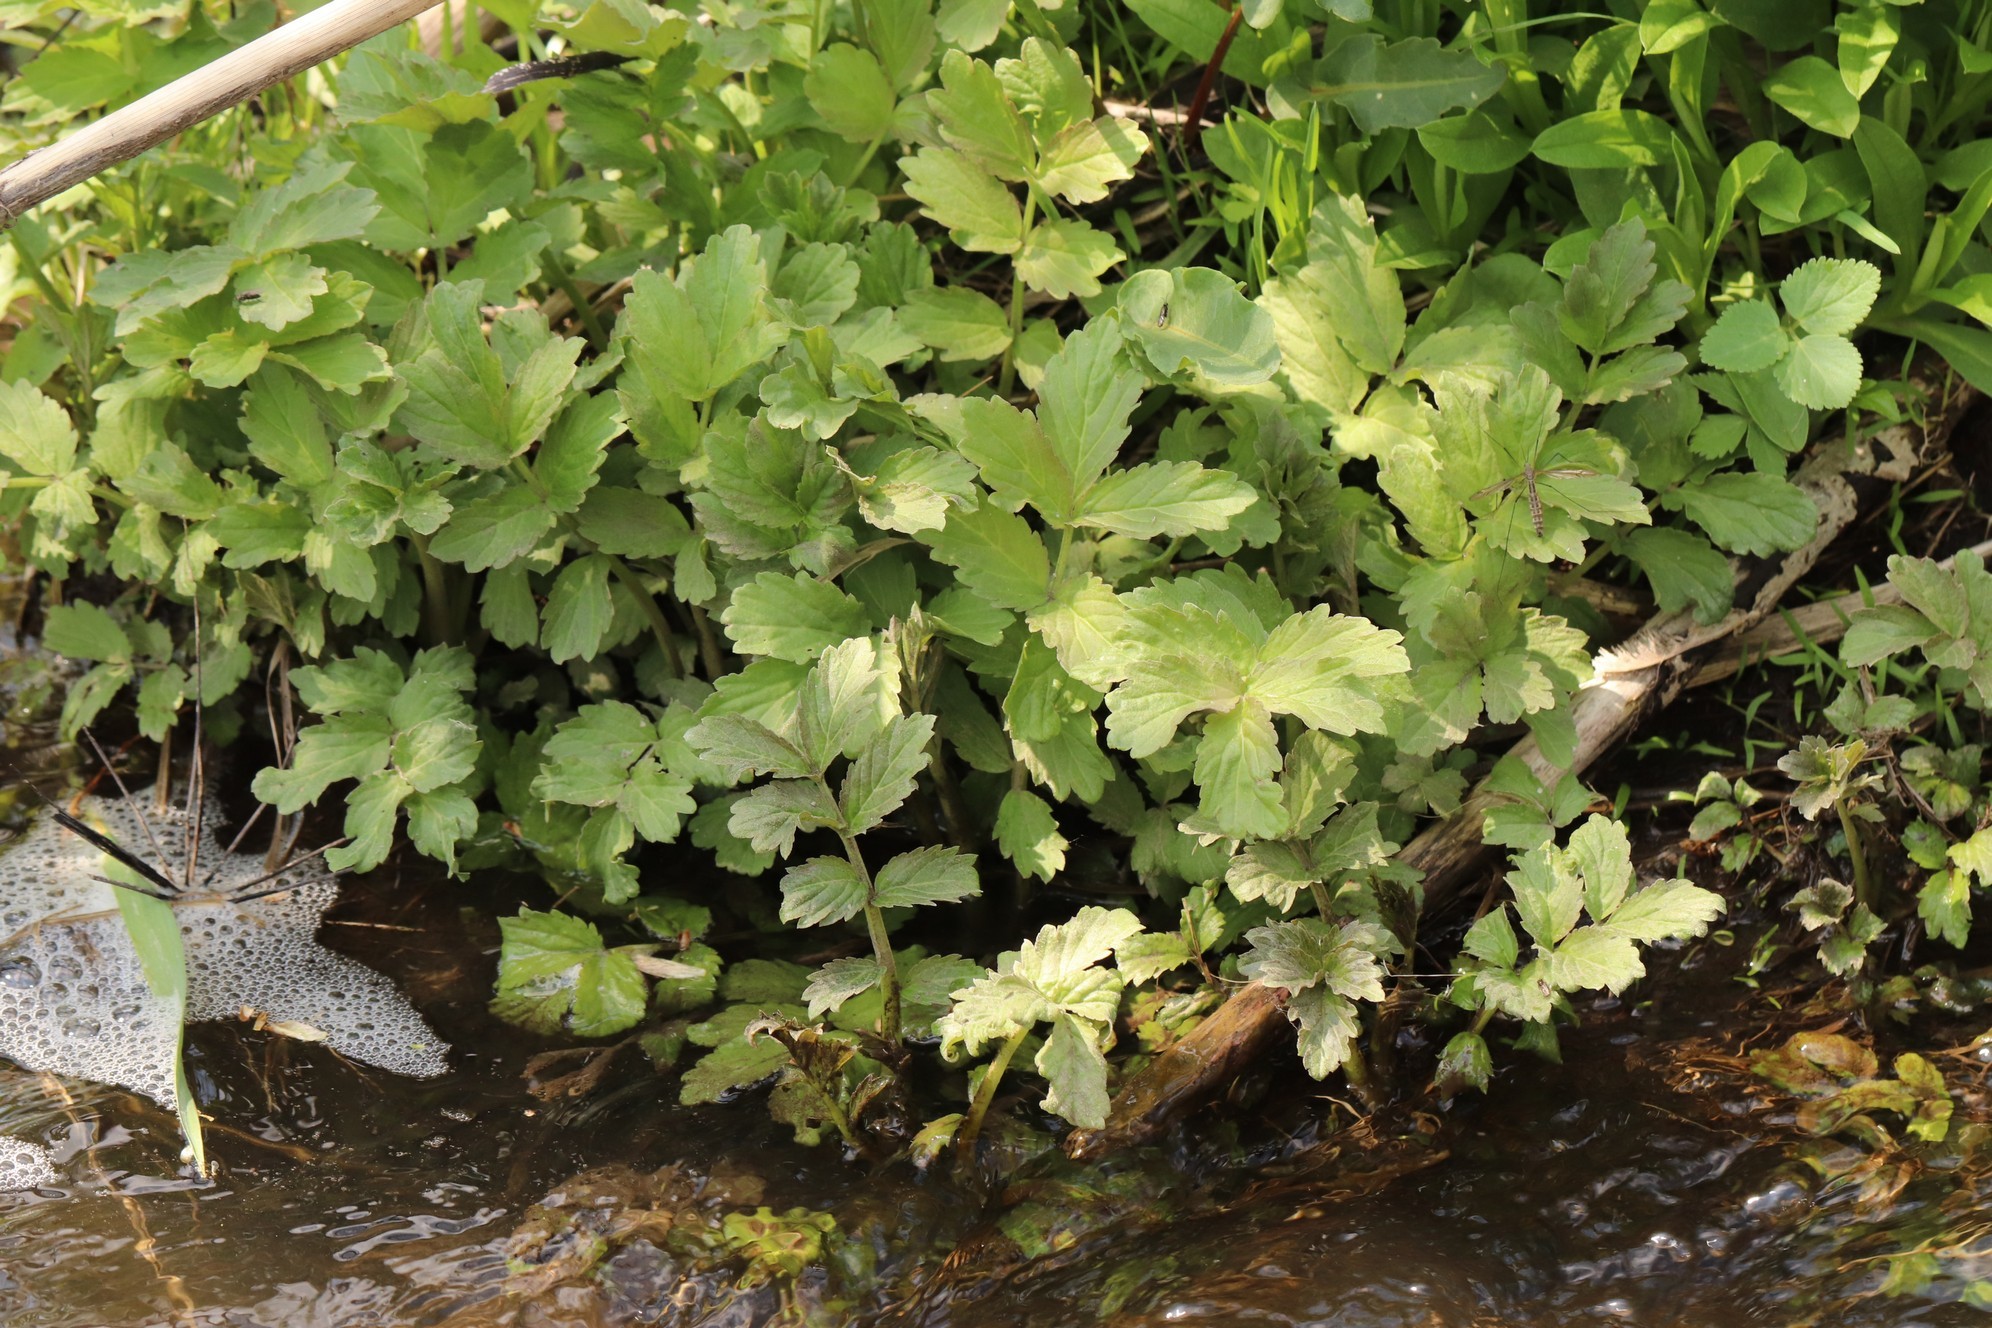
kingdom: Plantae
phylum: Tracheophyta
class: Magnoliopsida
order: Brassicales
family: Brassicaceae
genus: Cardamine
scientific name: Cardamine macrophylla
